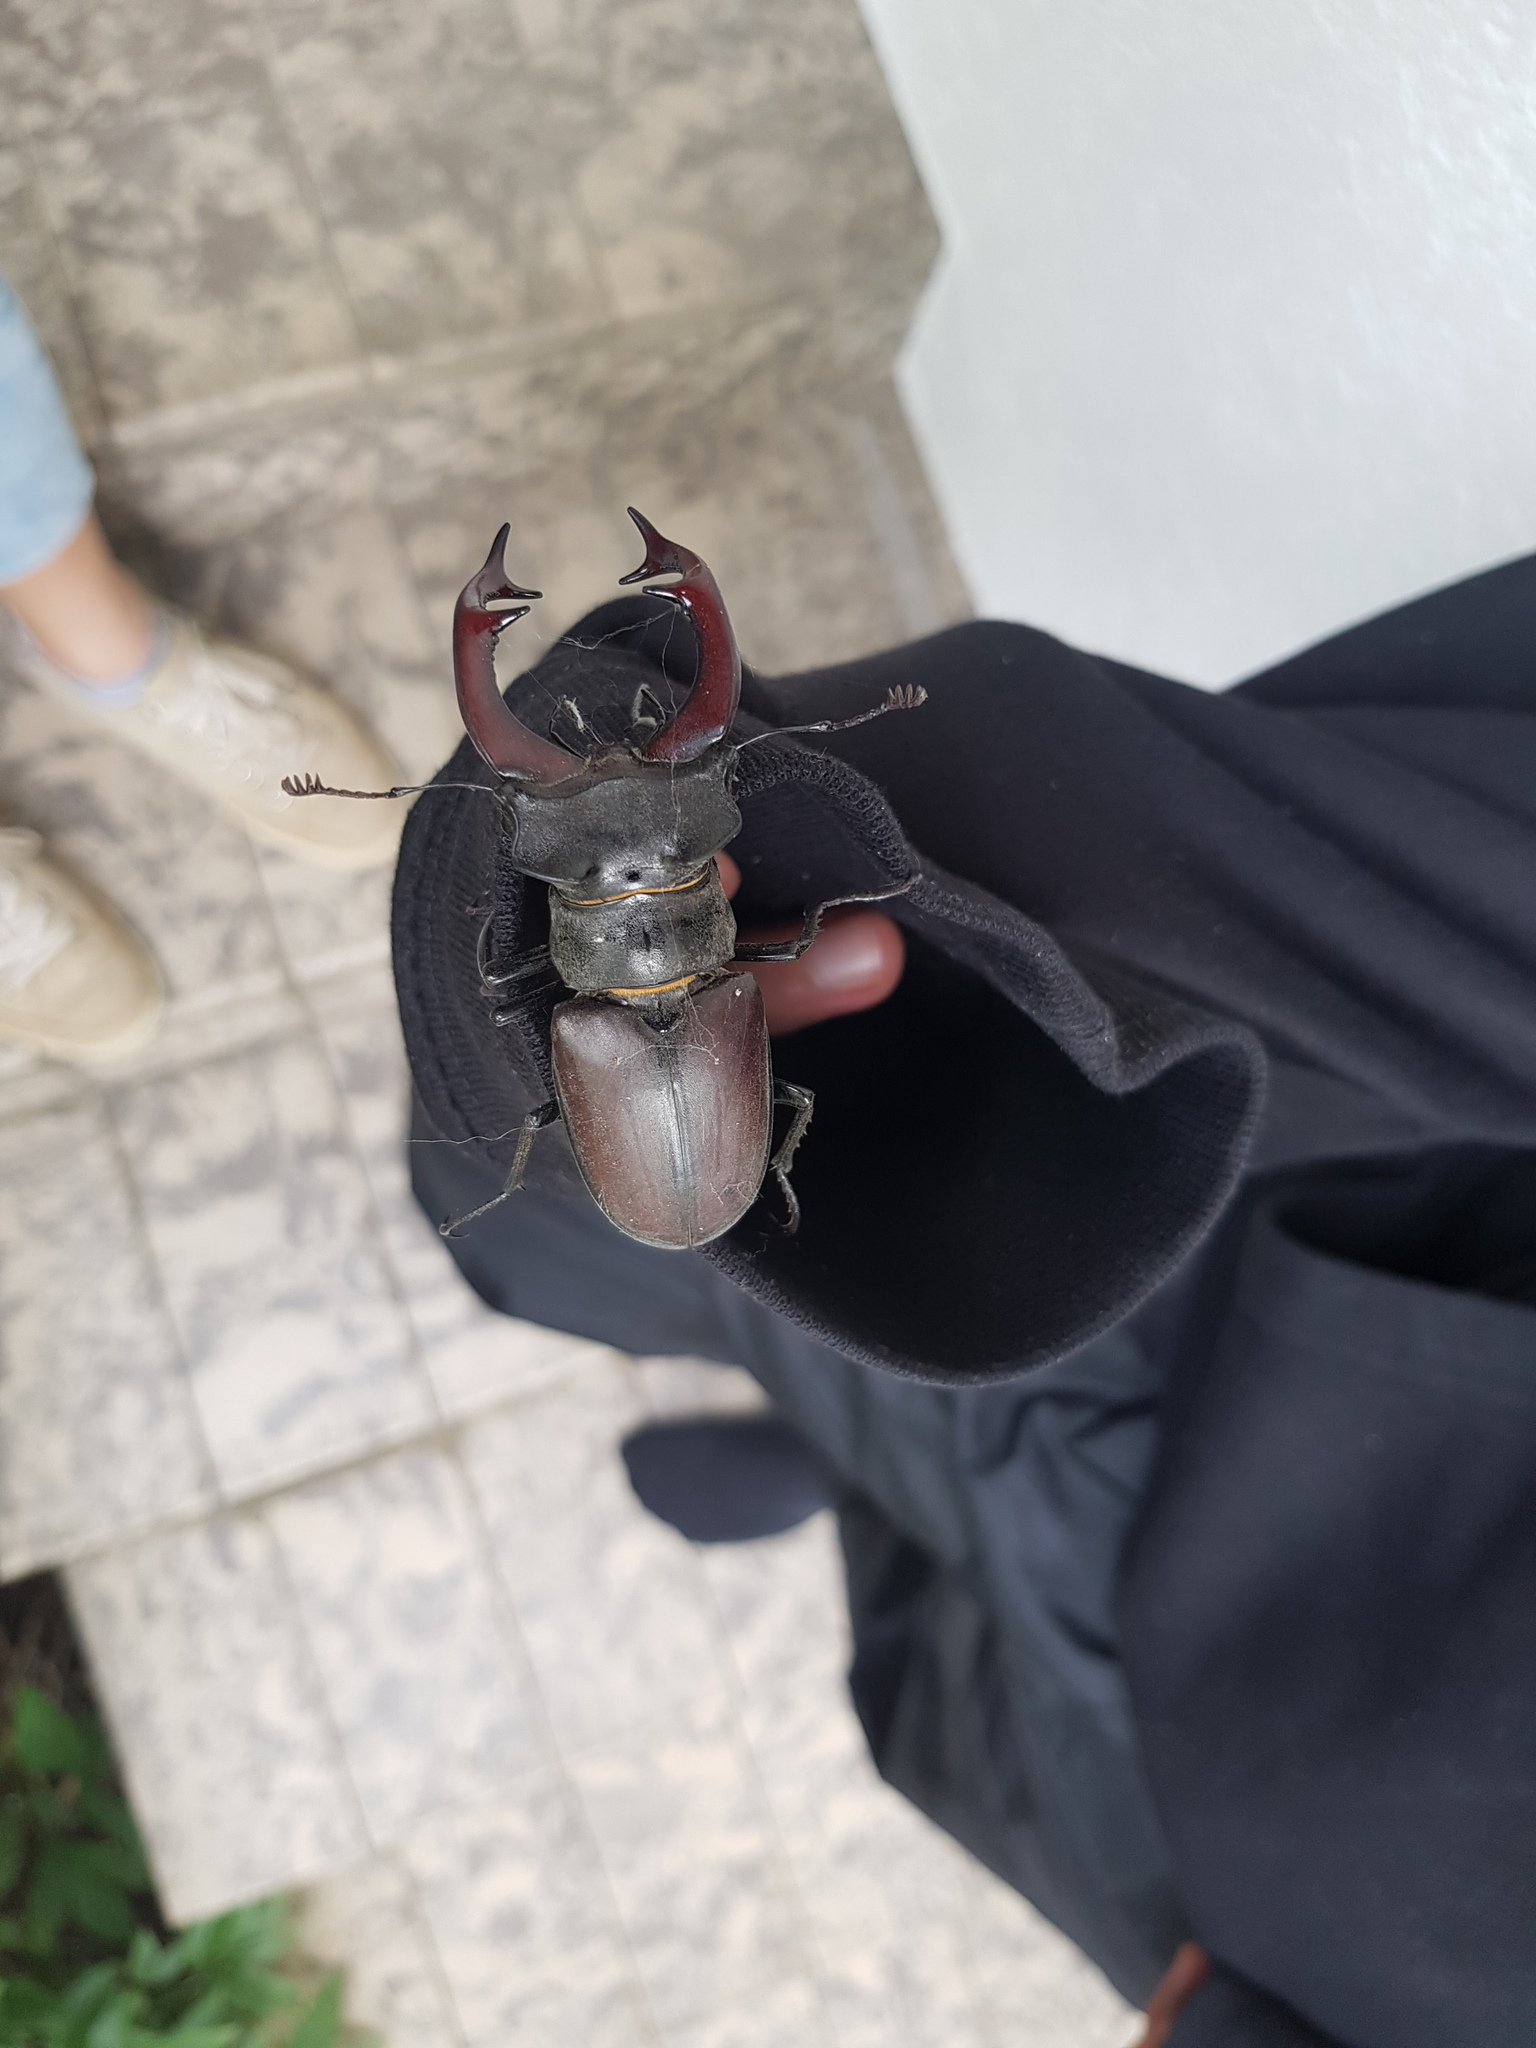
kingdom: Animalia
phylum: Arthropoda
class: Insecta
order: Coleoptera
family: Lucanidae
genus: Lucanus
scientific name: Lucanus cervus
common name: Stag beetle
